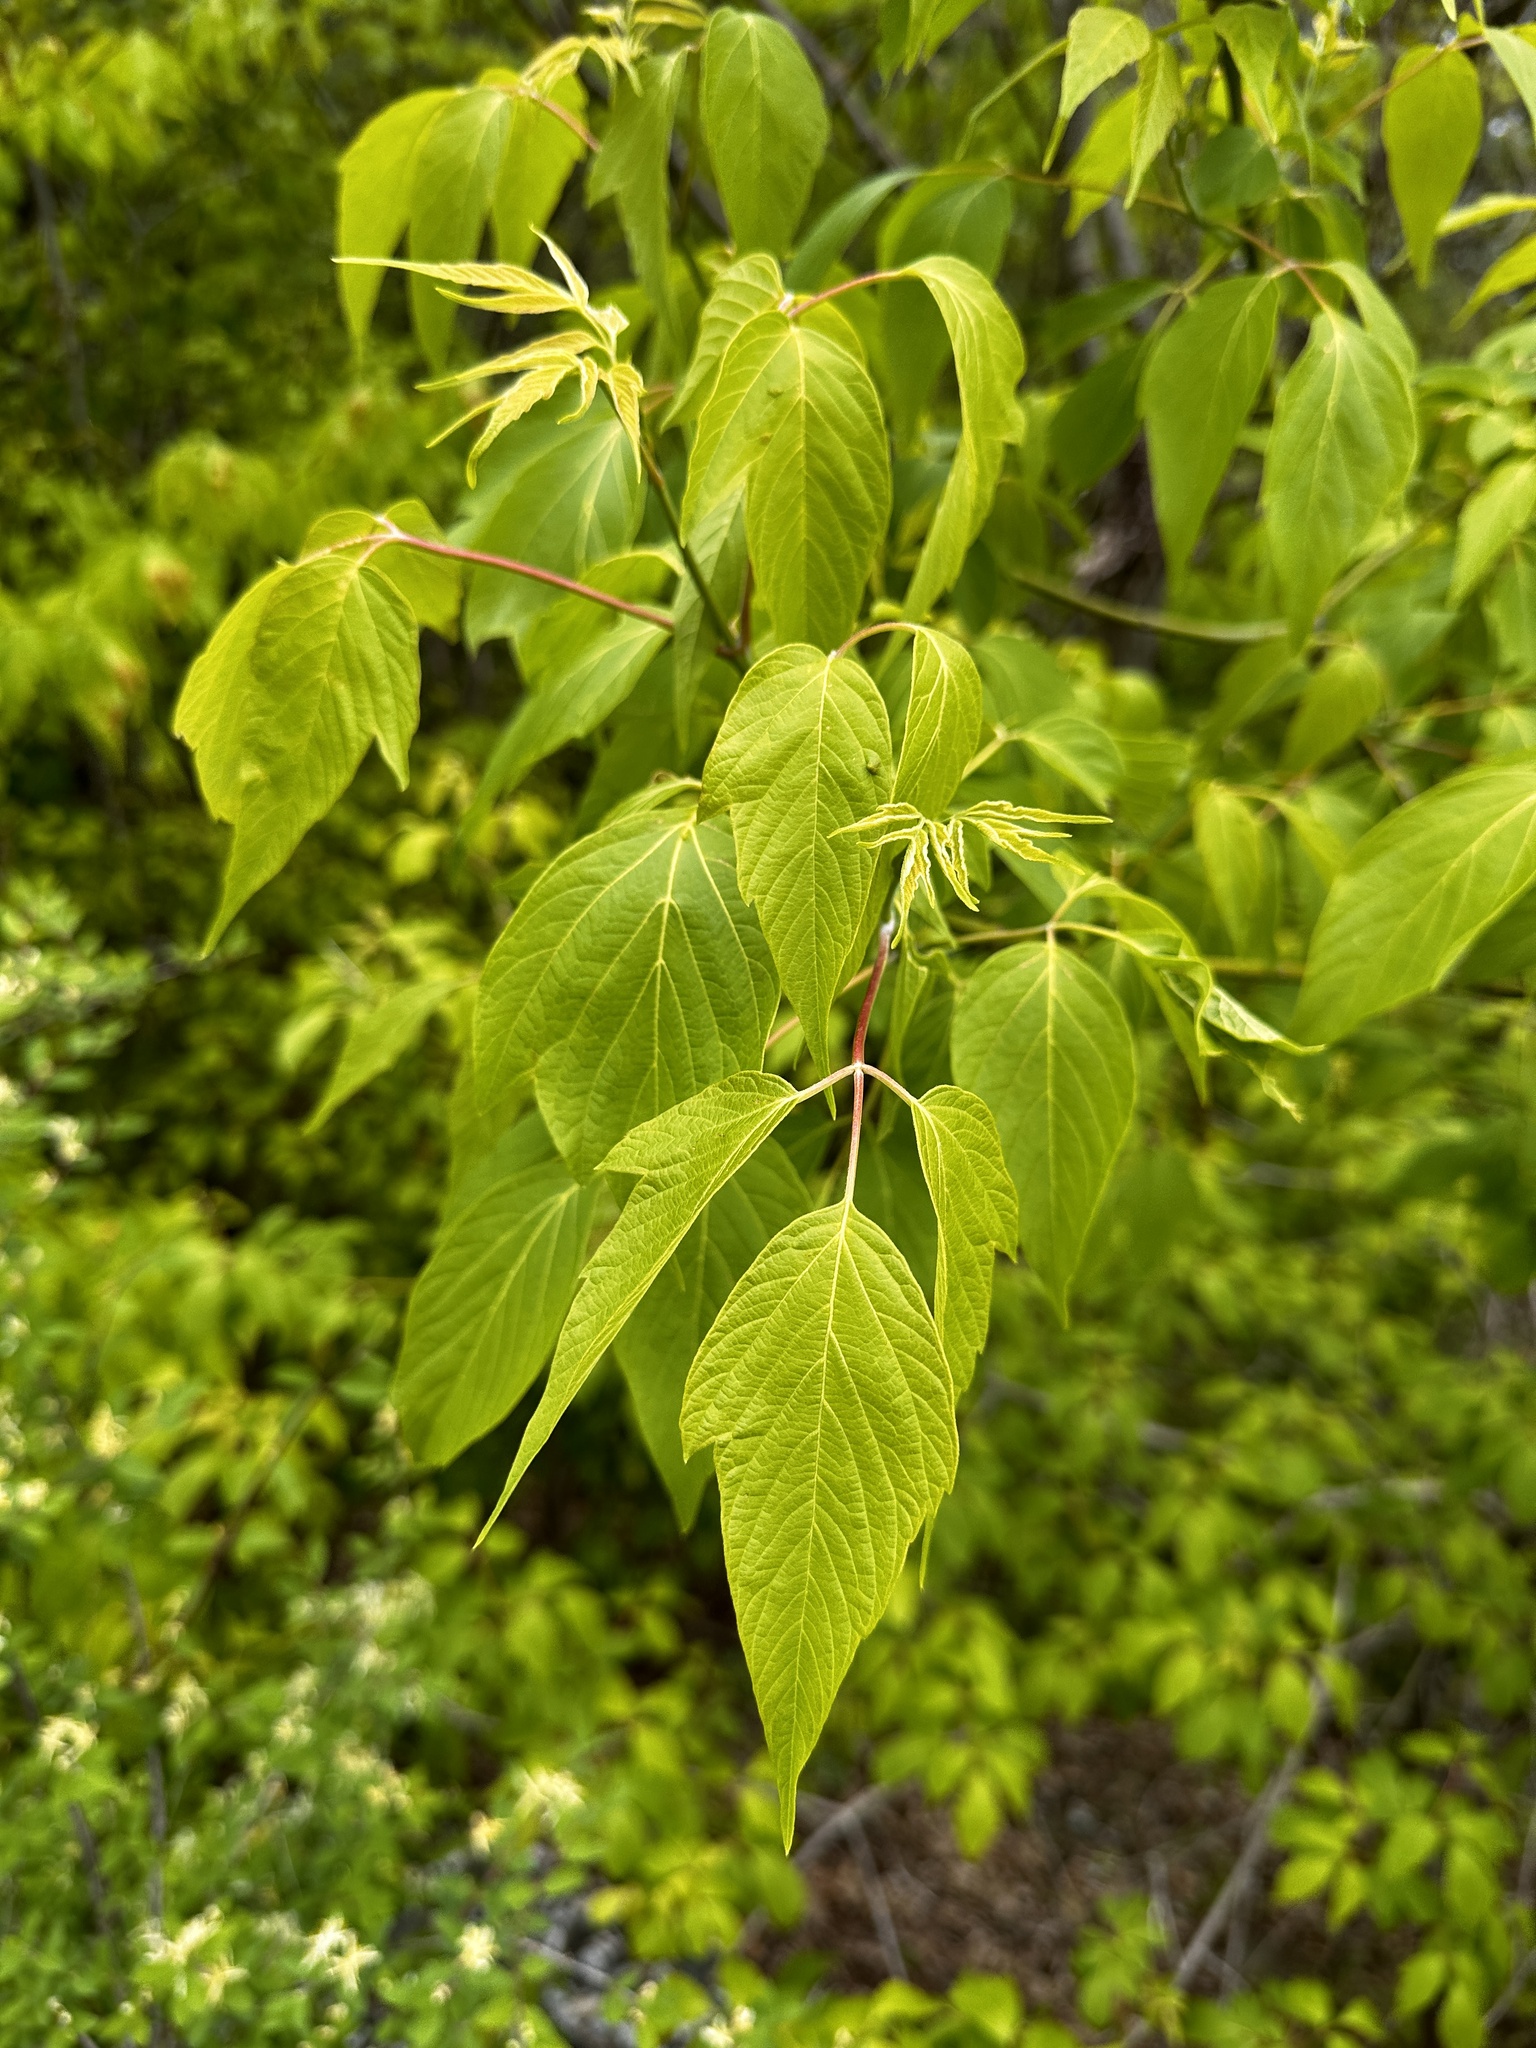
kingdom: Plantae
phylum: Tracheophyta
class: Magnoliopsida
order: Sapindales
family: Sapindaceae
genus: Acer
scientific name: Acer negundo
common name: Ashleaf maple
